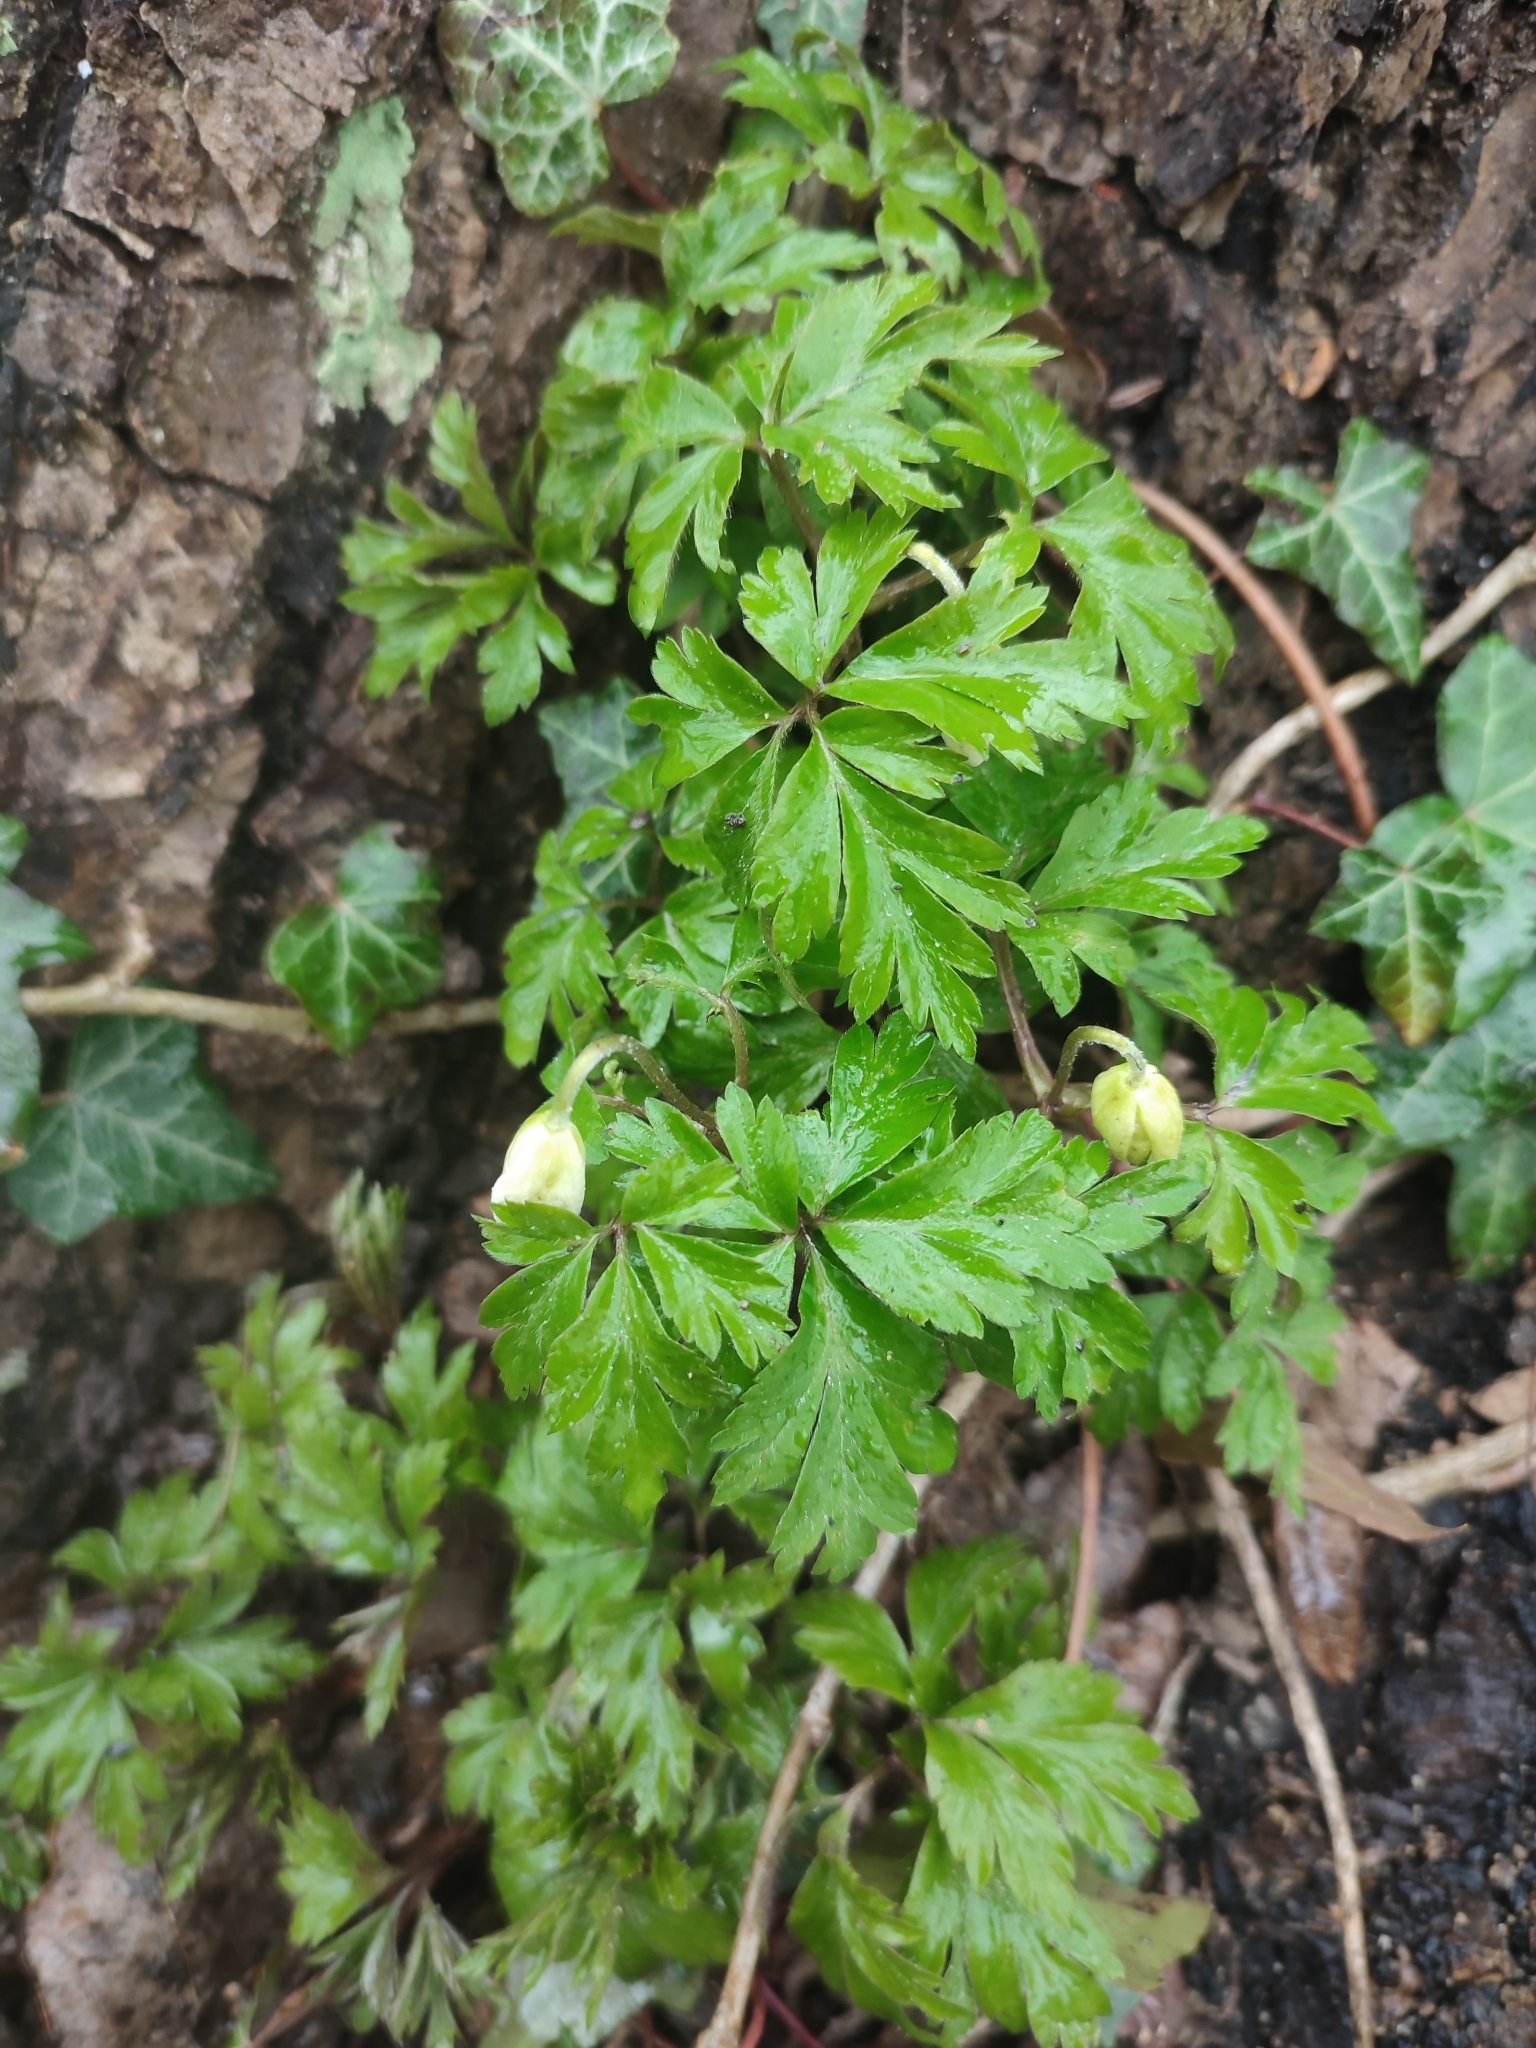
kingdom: Plantae
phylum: Tracheophyta
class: Magnoliopsida
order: Ranunculales
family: Ranunculaceae
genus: Anemone
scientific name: Anemone nemorosa
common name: Wood anemone
